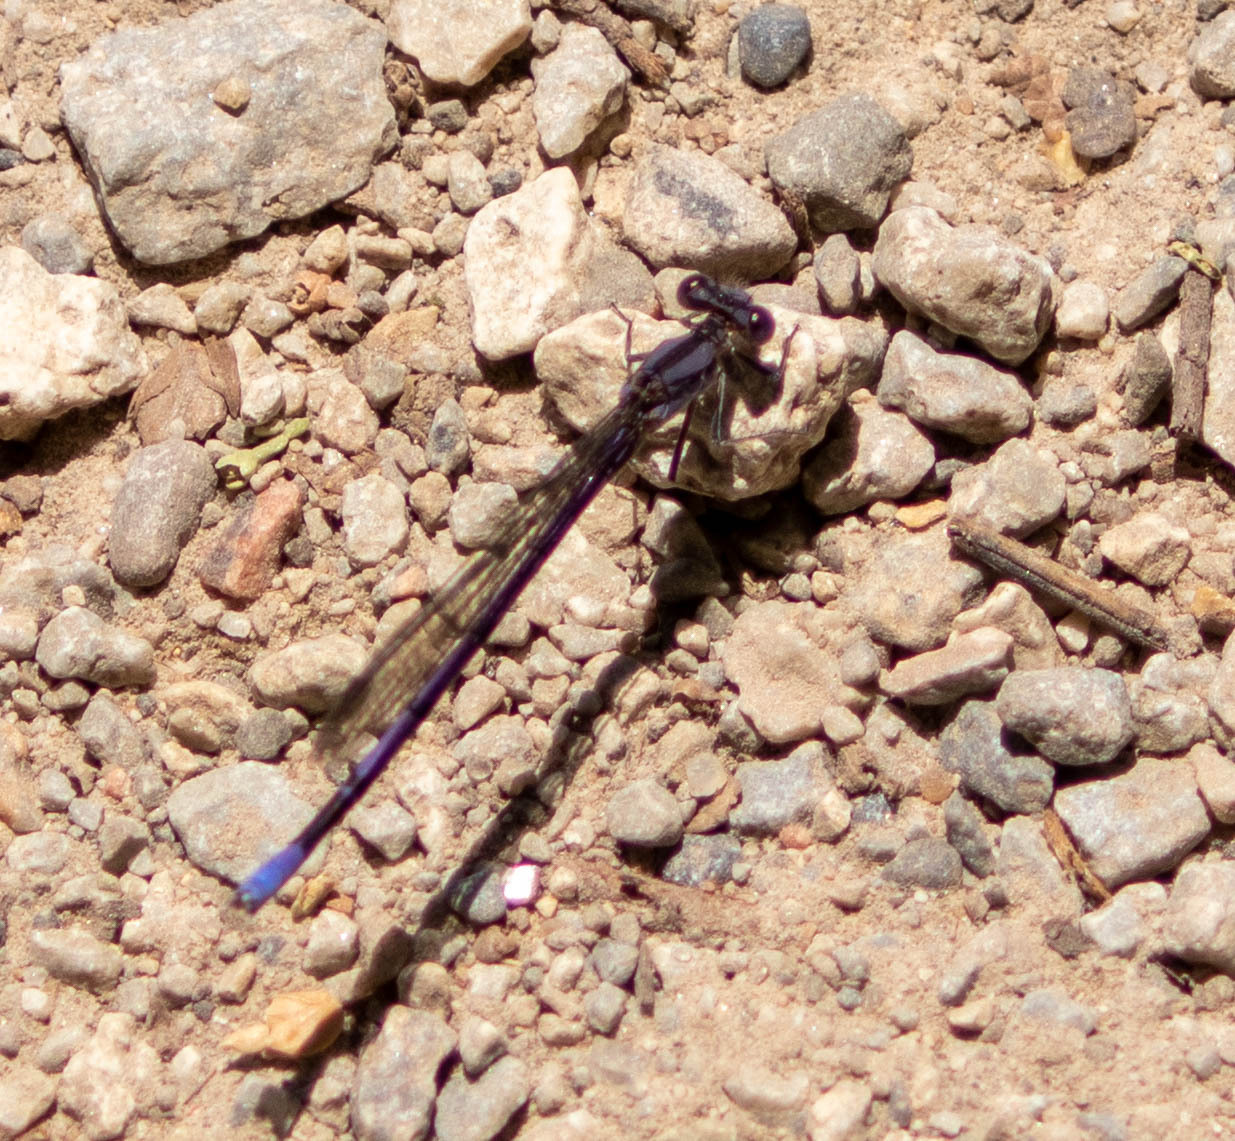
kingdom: Animalia
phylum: Arthropoda
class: Insecta
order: Odonata
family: Coenagrionidae
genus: Argia
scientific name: Argia fumipennis
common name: Variable dancer
